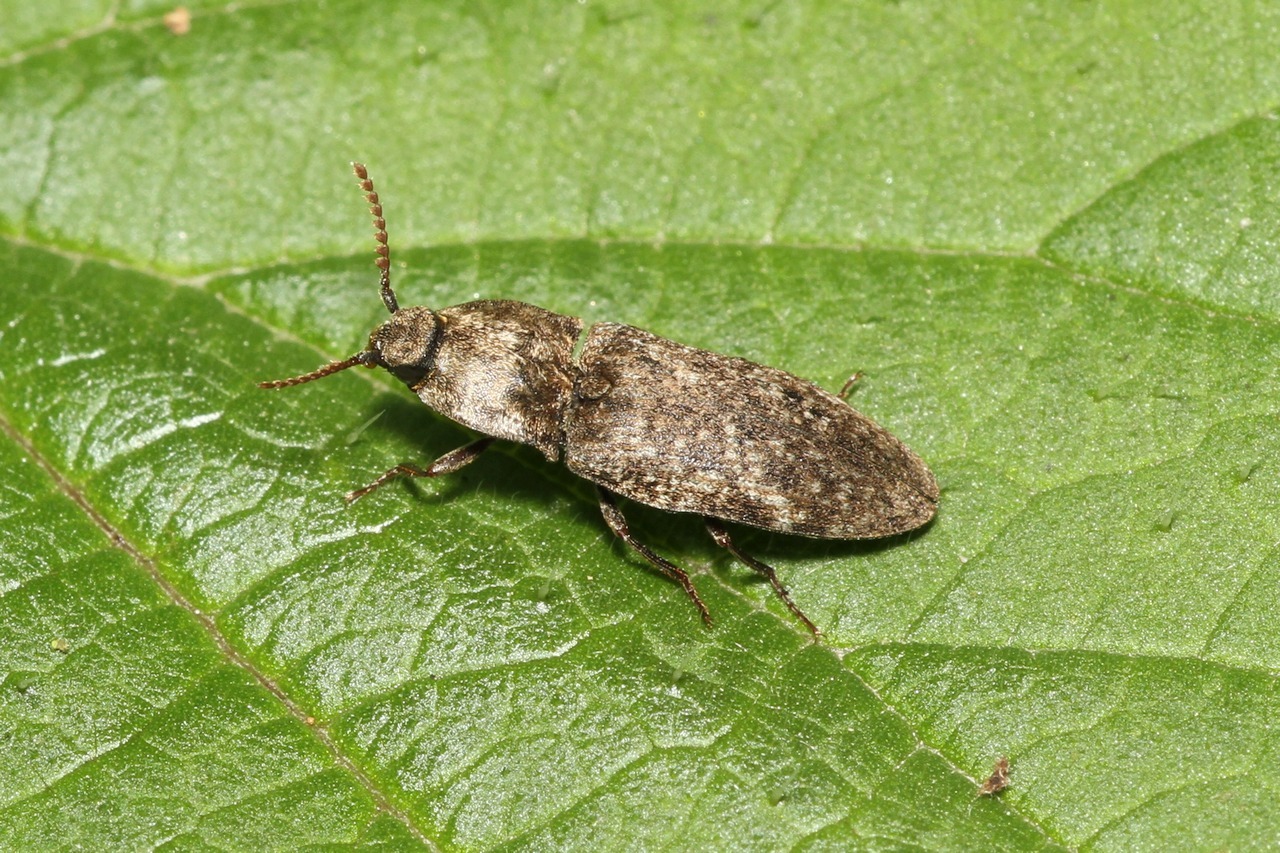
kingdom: Animalia
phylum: Arthropoda
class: Insecta
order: Coleoptera
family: Elateridae
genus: Agrypnus
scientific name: Agrypnus murinus
